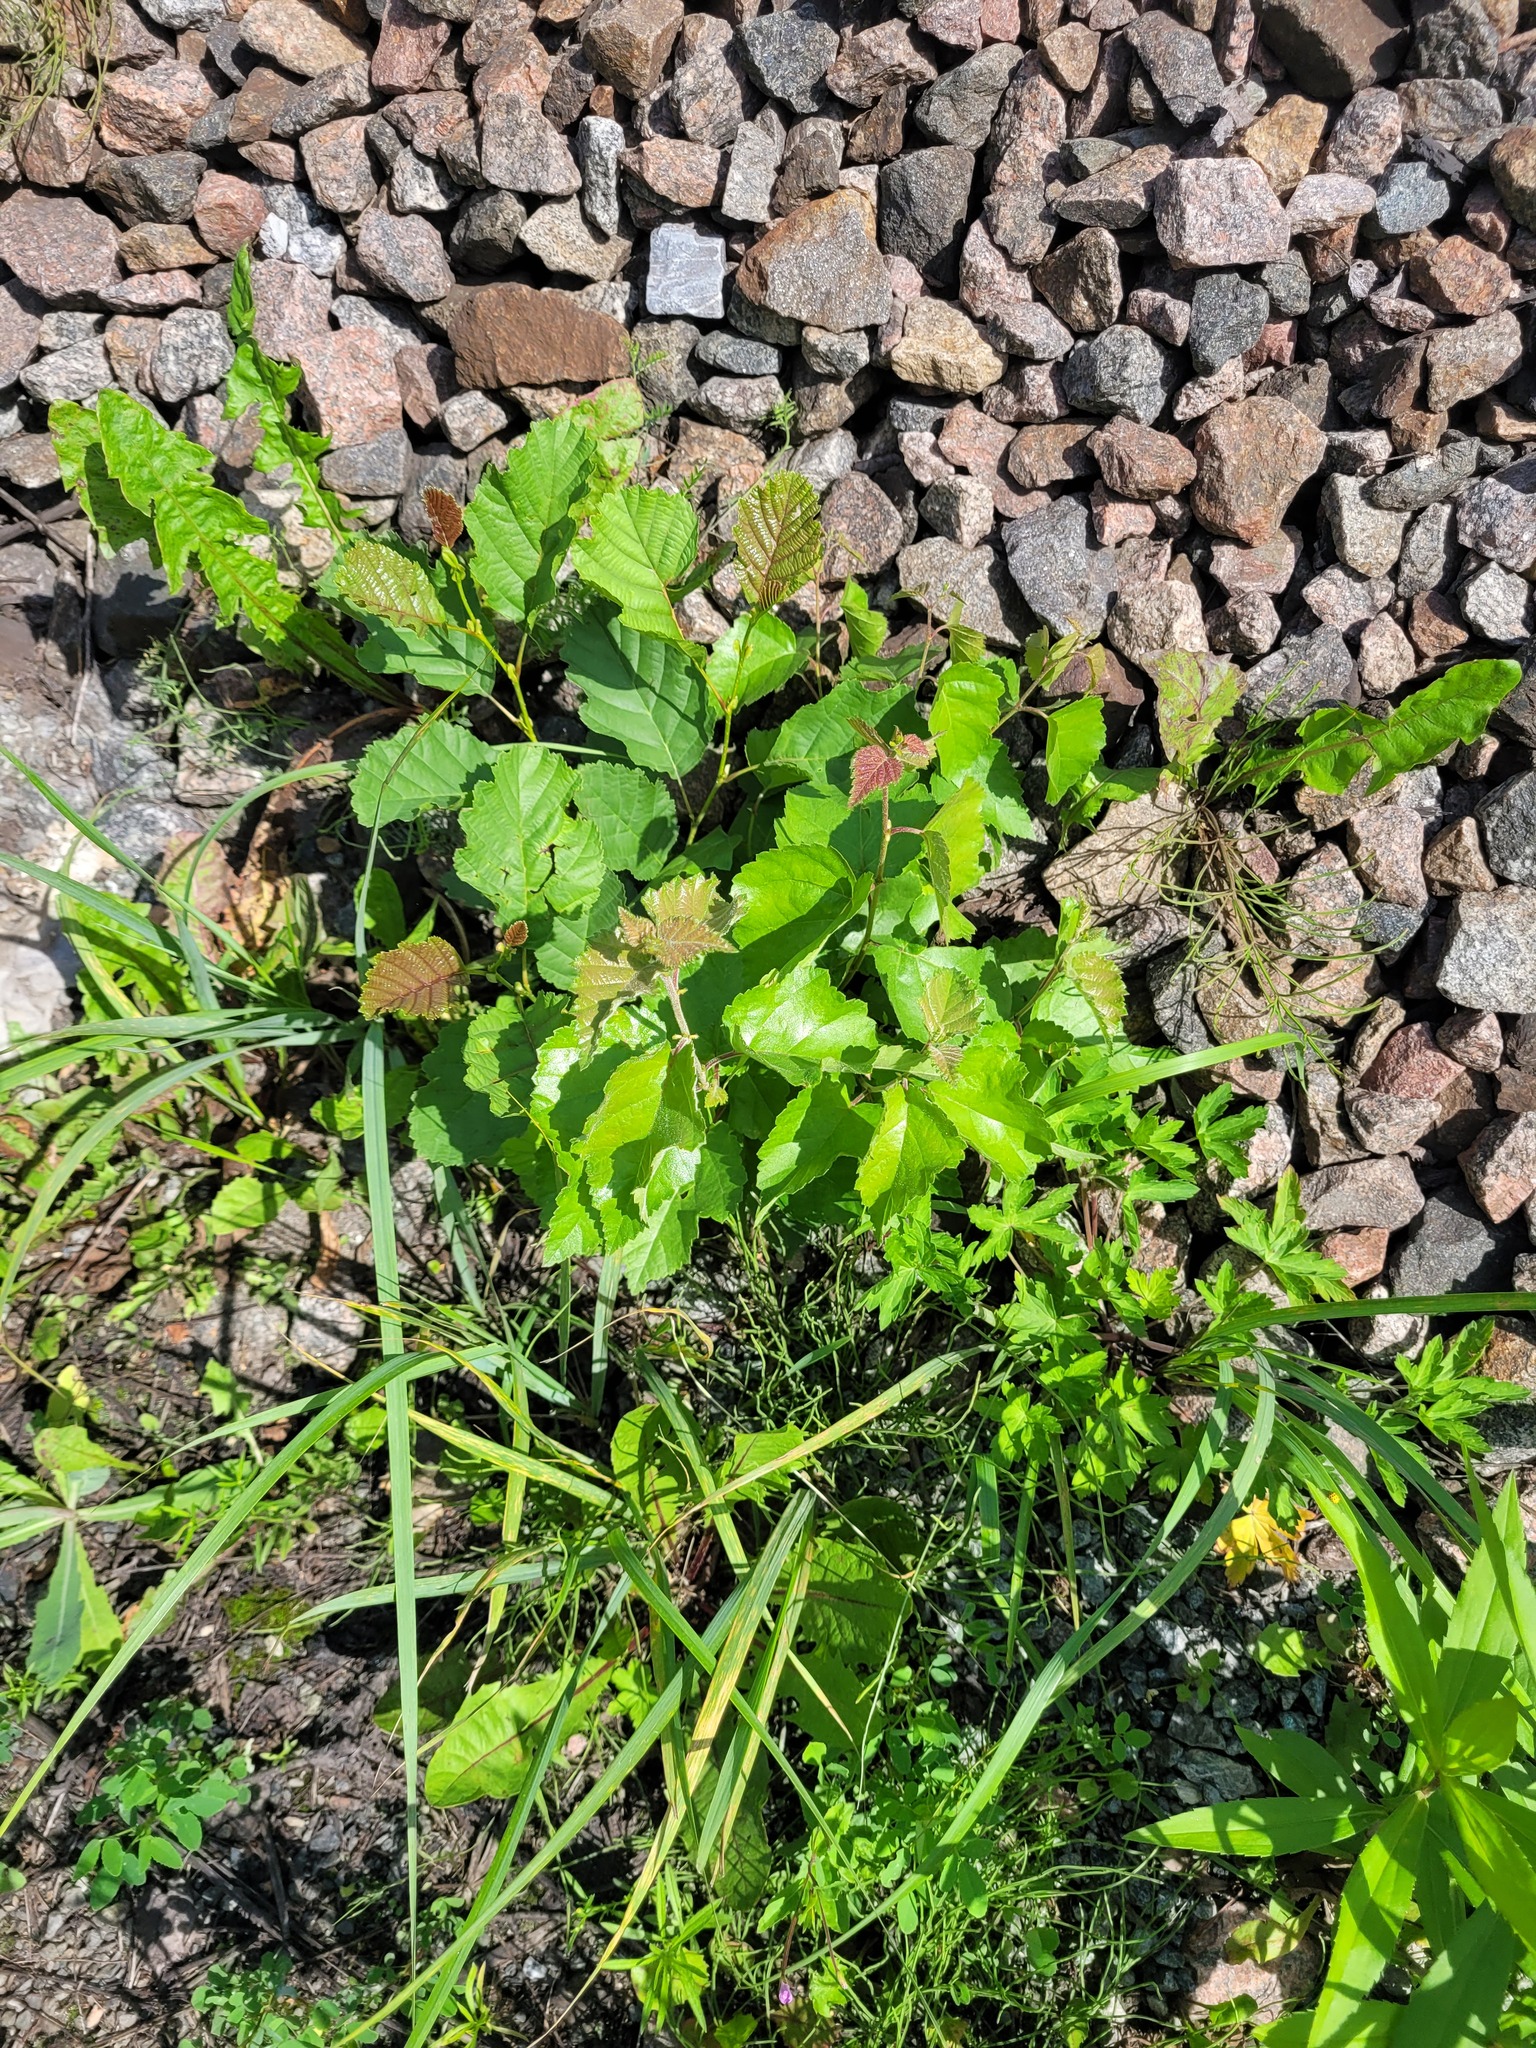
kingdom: Plantae
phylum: Tracheophyta
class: Magnoliopsida
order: Fagales
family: Betulaceae
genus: Betula
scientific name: Betula pubescens
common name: Downy birch
